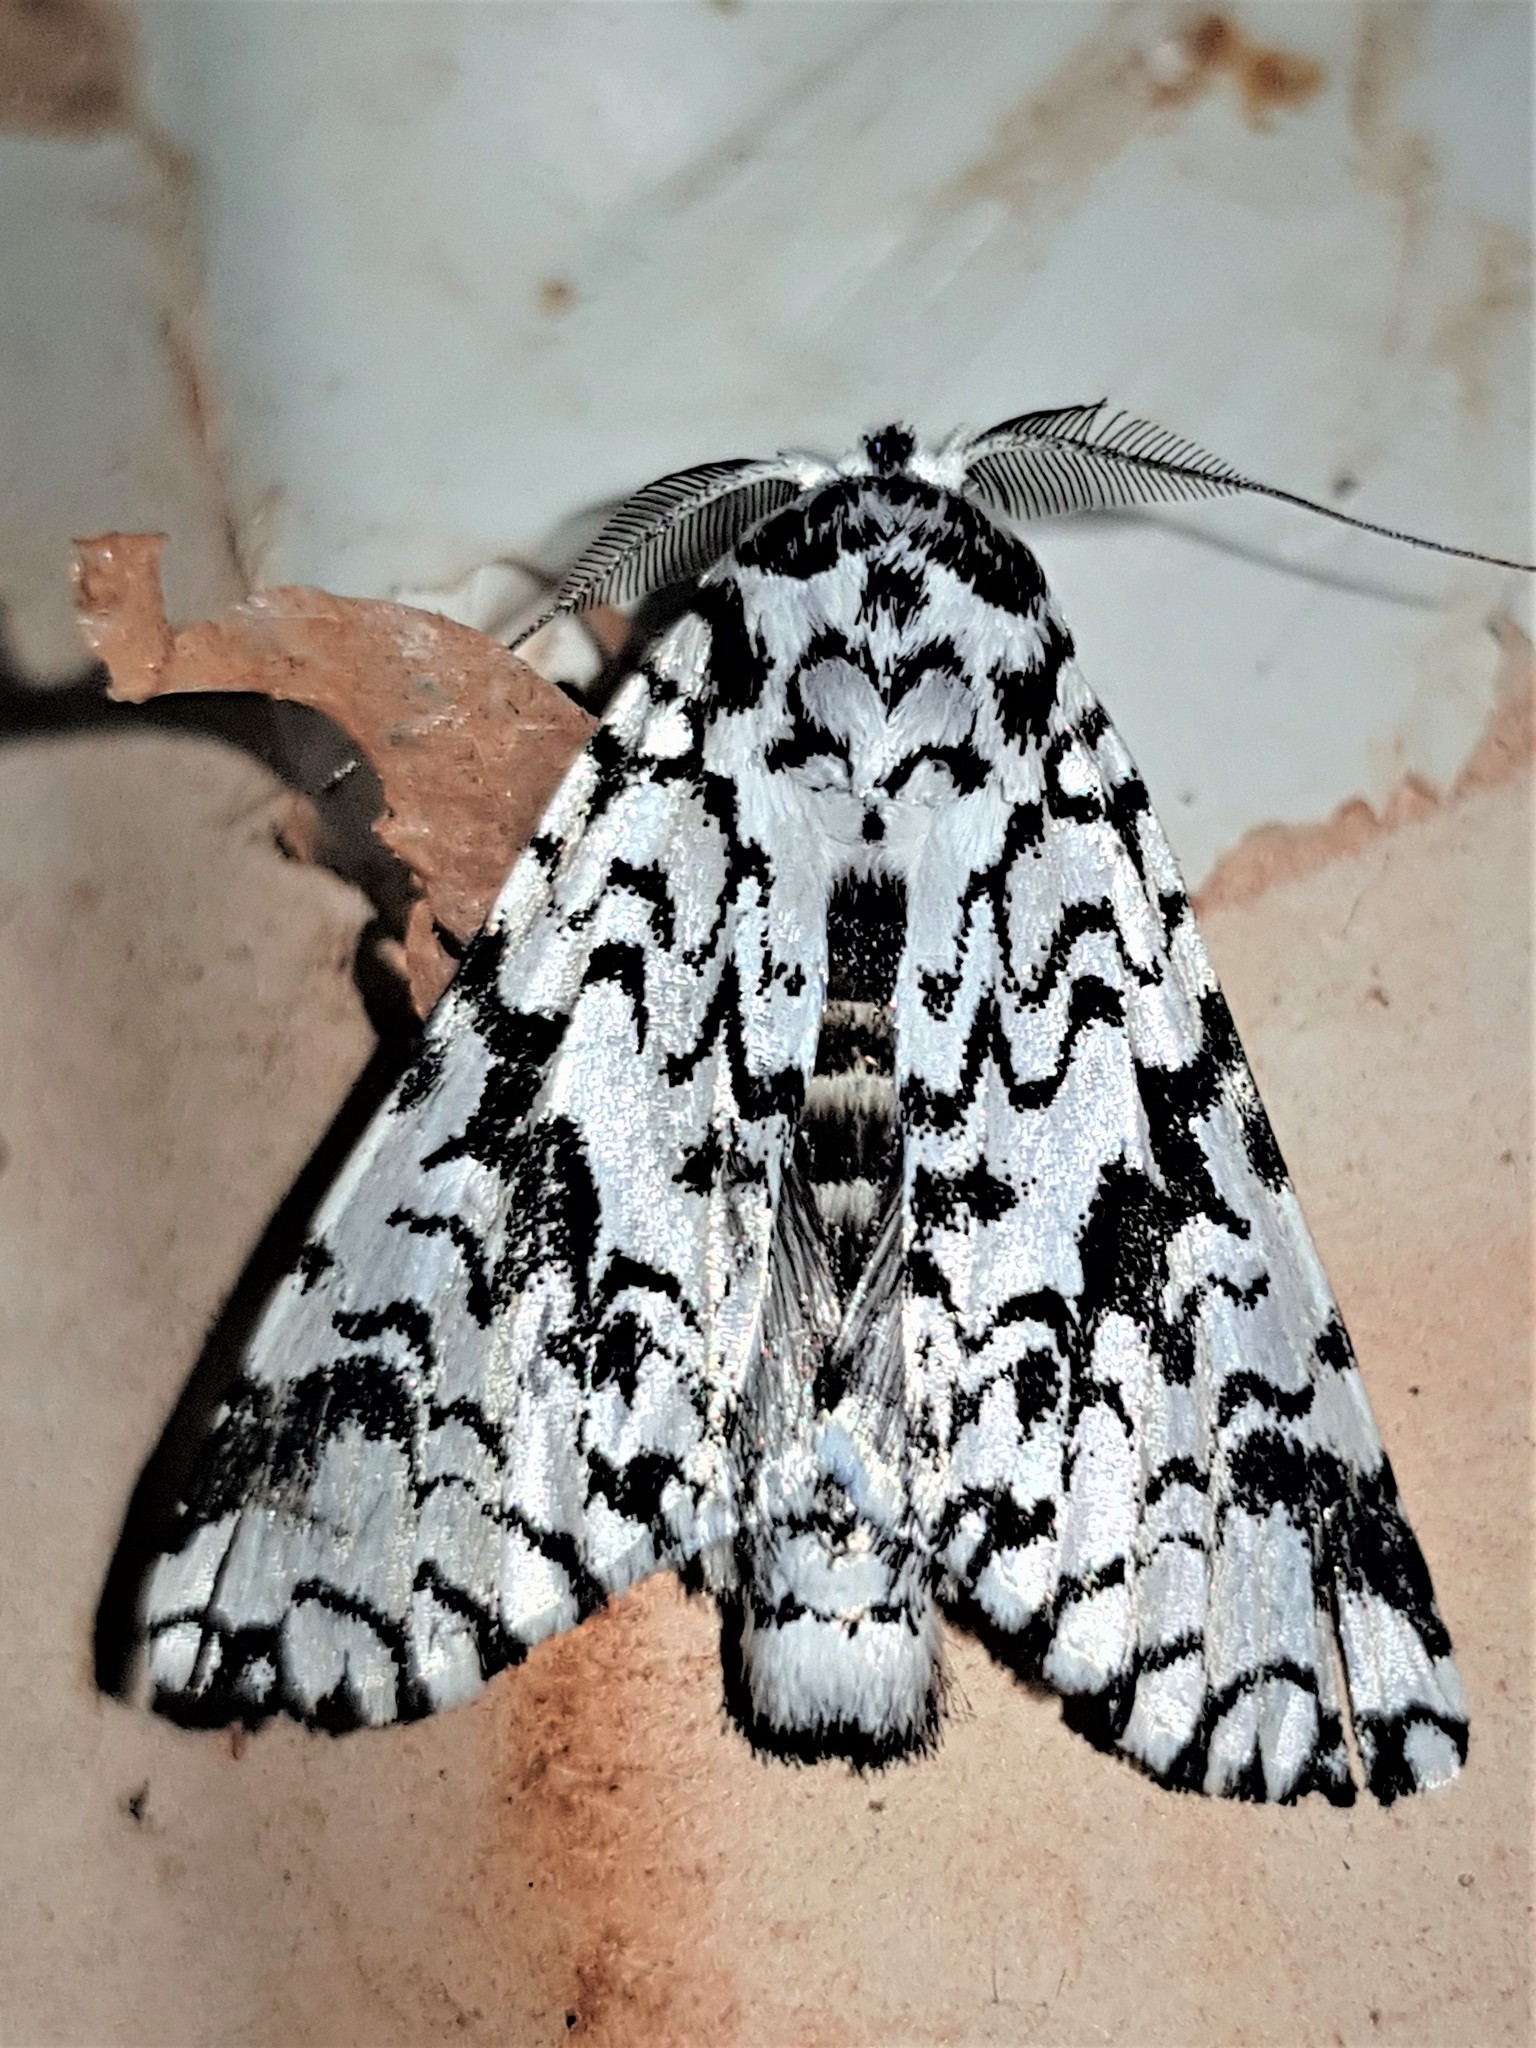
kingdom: Animalia
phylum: Arthropoda
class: Insecta
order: Lepidoptera
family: Notodontidae
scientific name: Notodontidae
